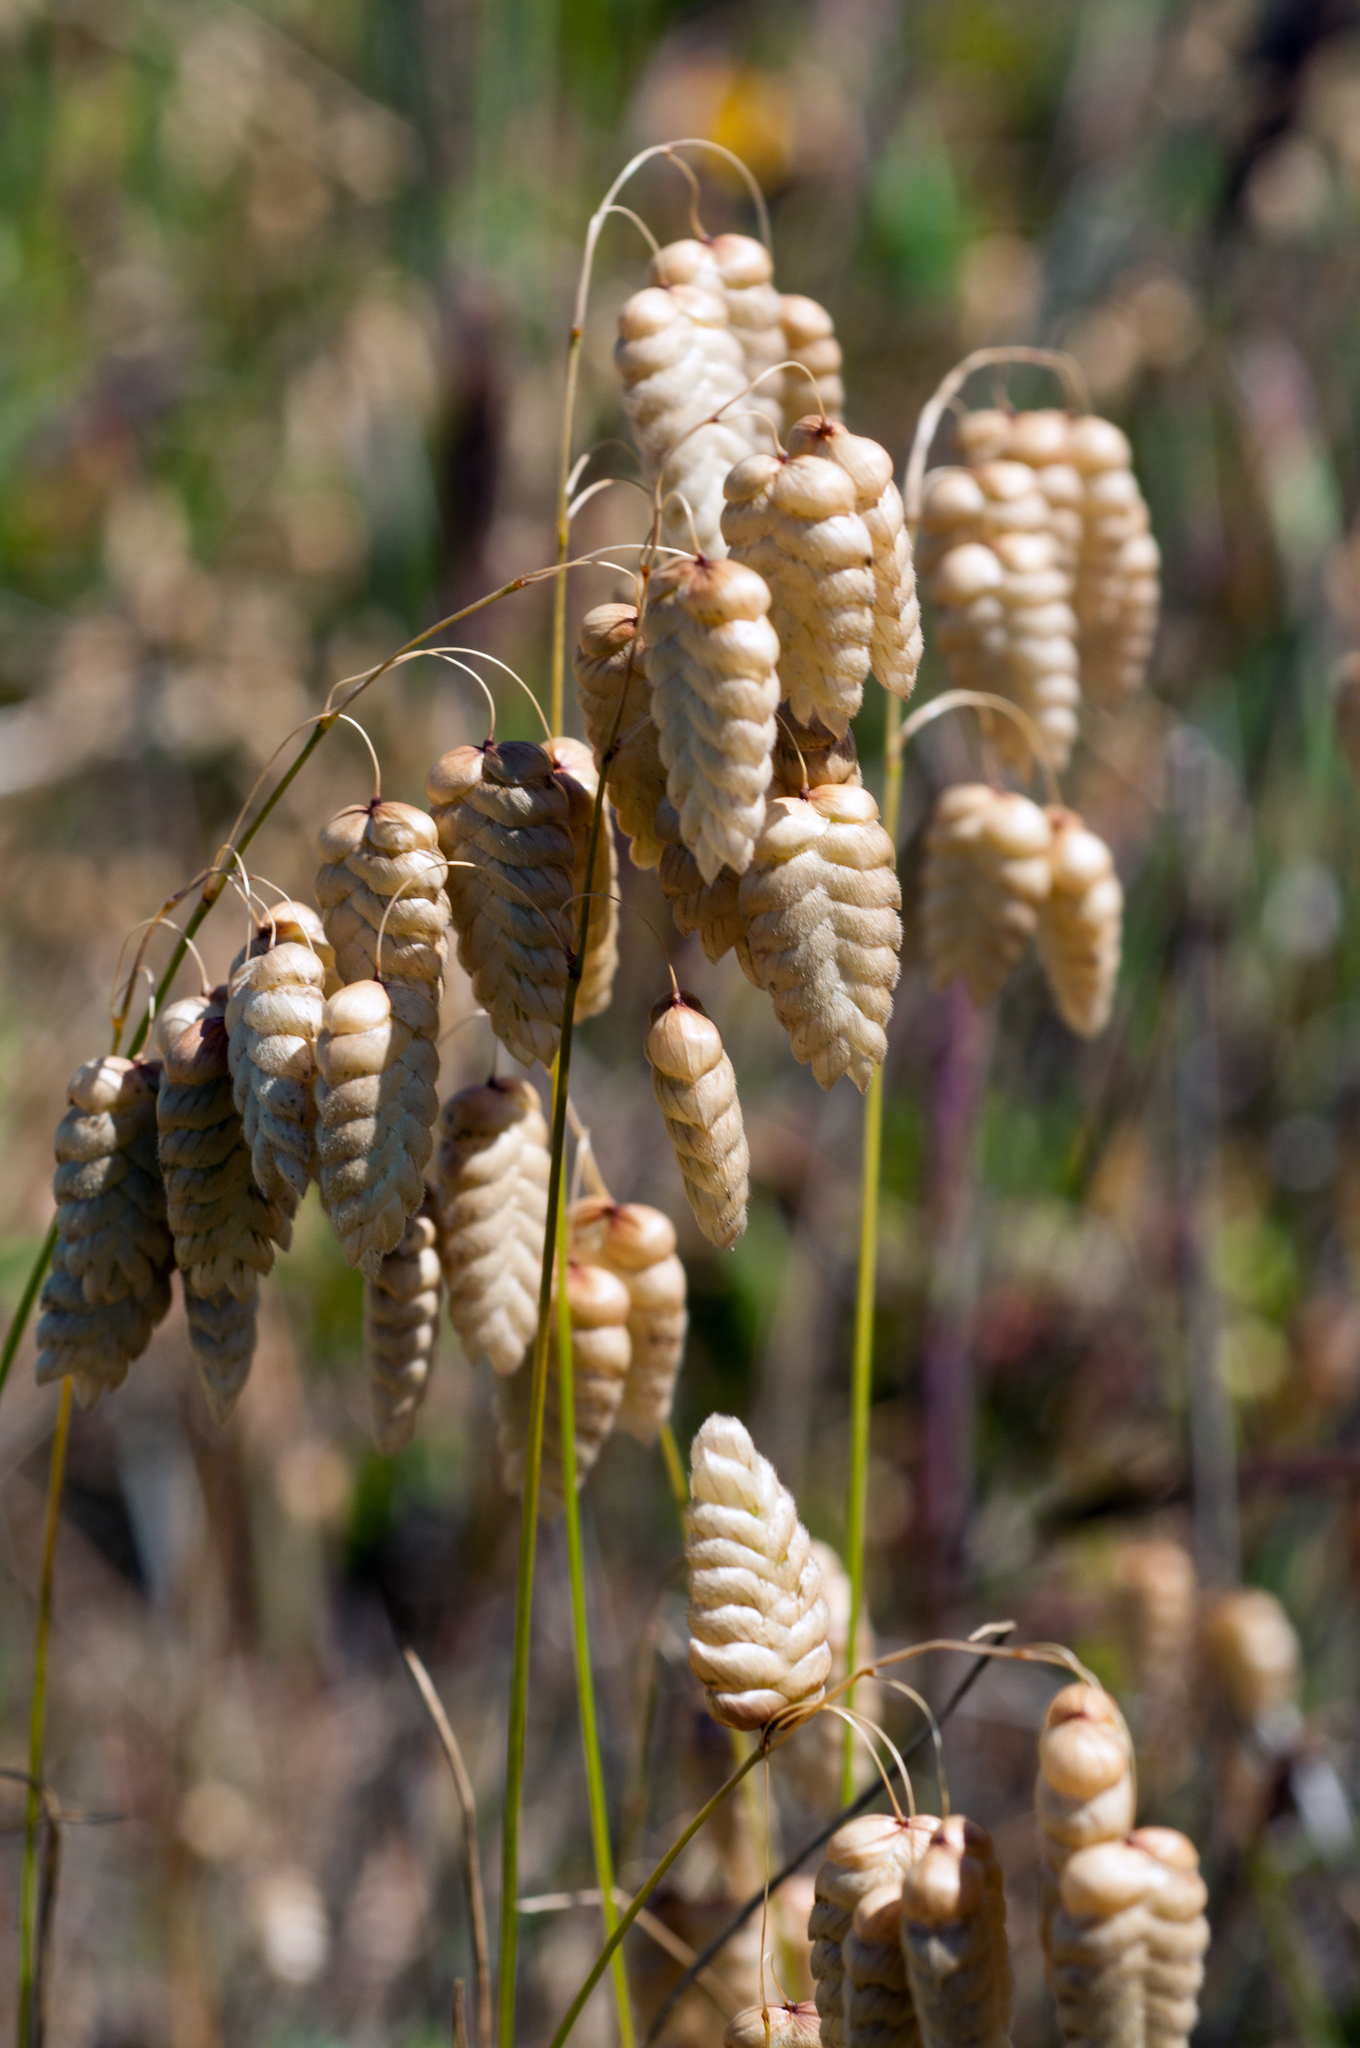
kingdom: Plantae
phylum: Tracheophyta
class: Liliopsida
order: Poales
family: Poaceae
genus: Briza
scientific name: Briza maxima
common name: Big quakinggrass
